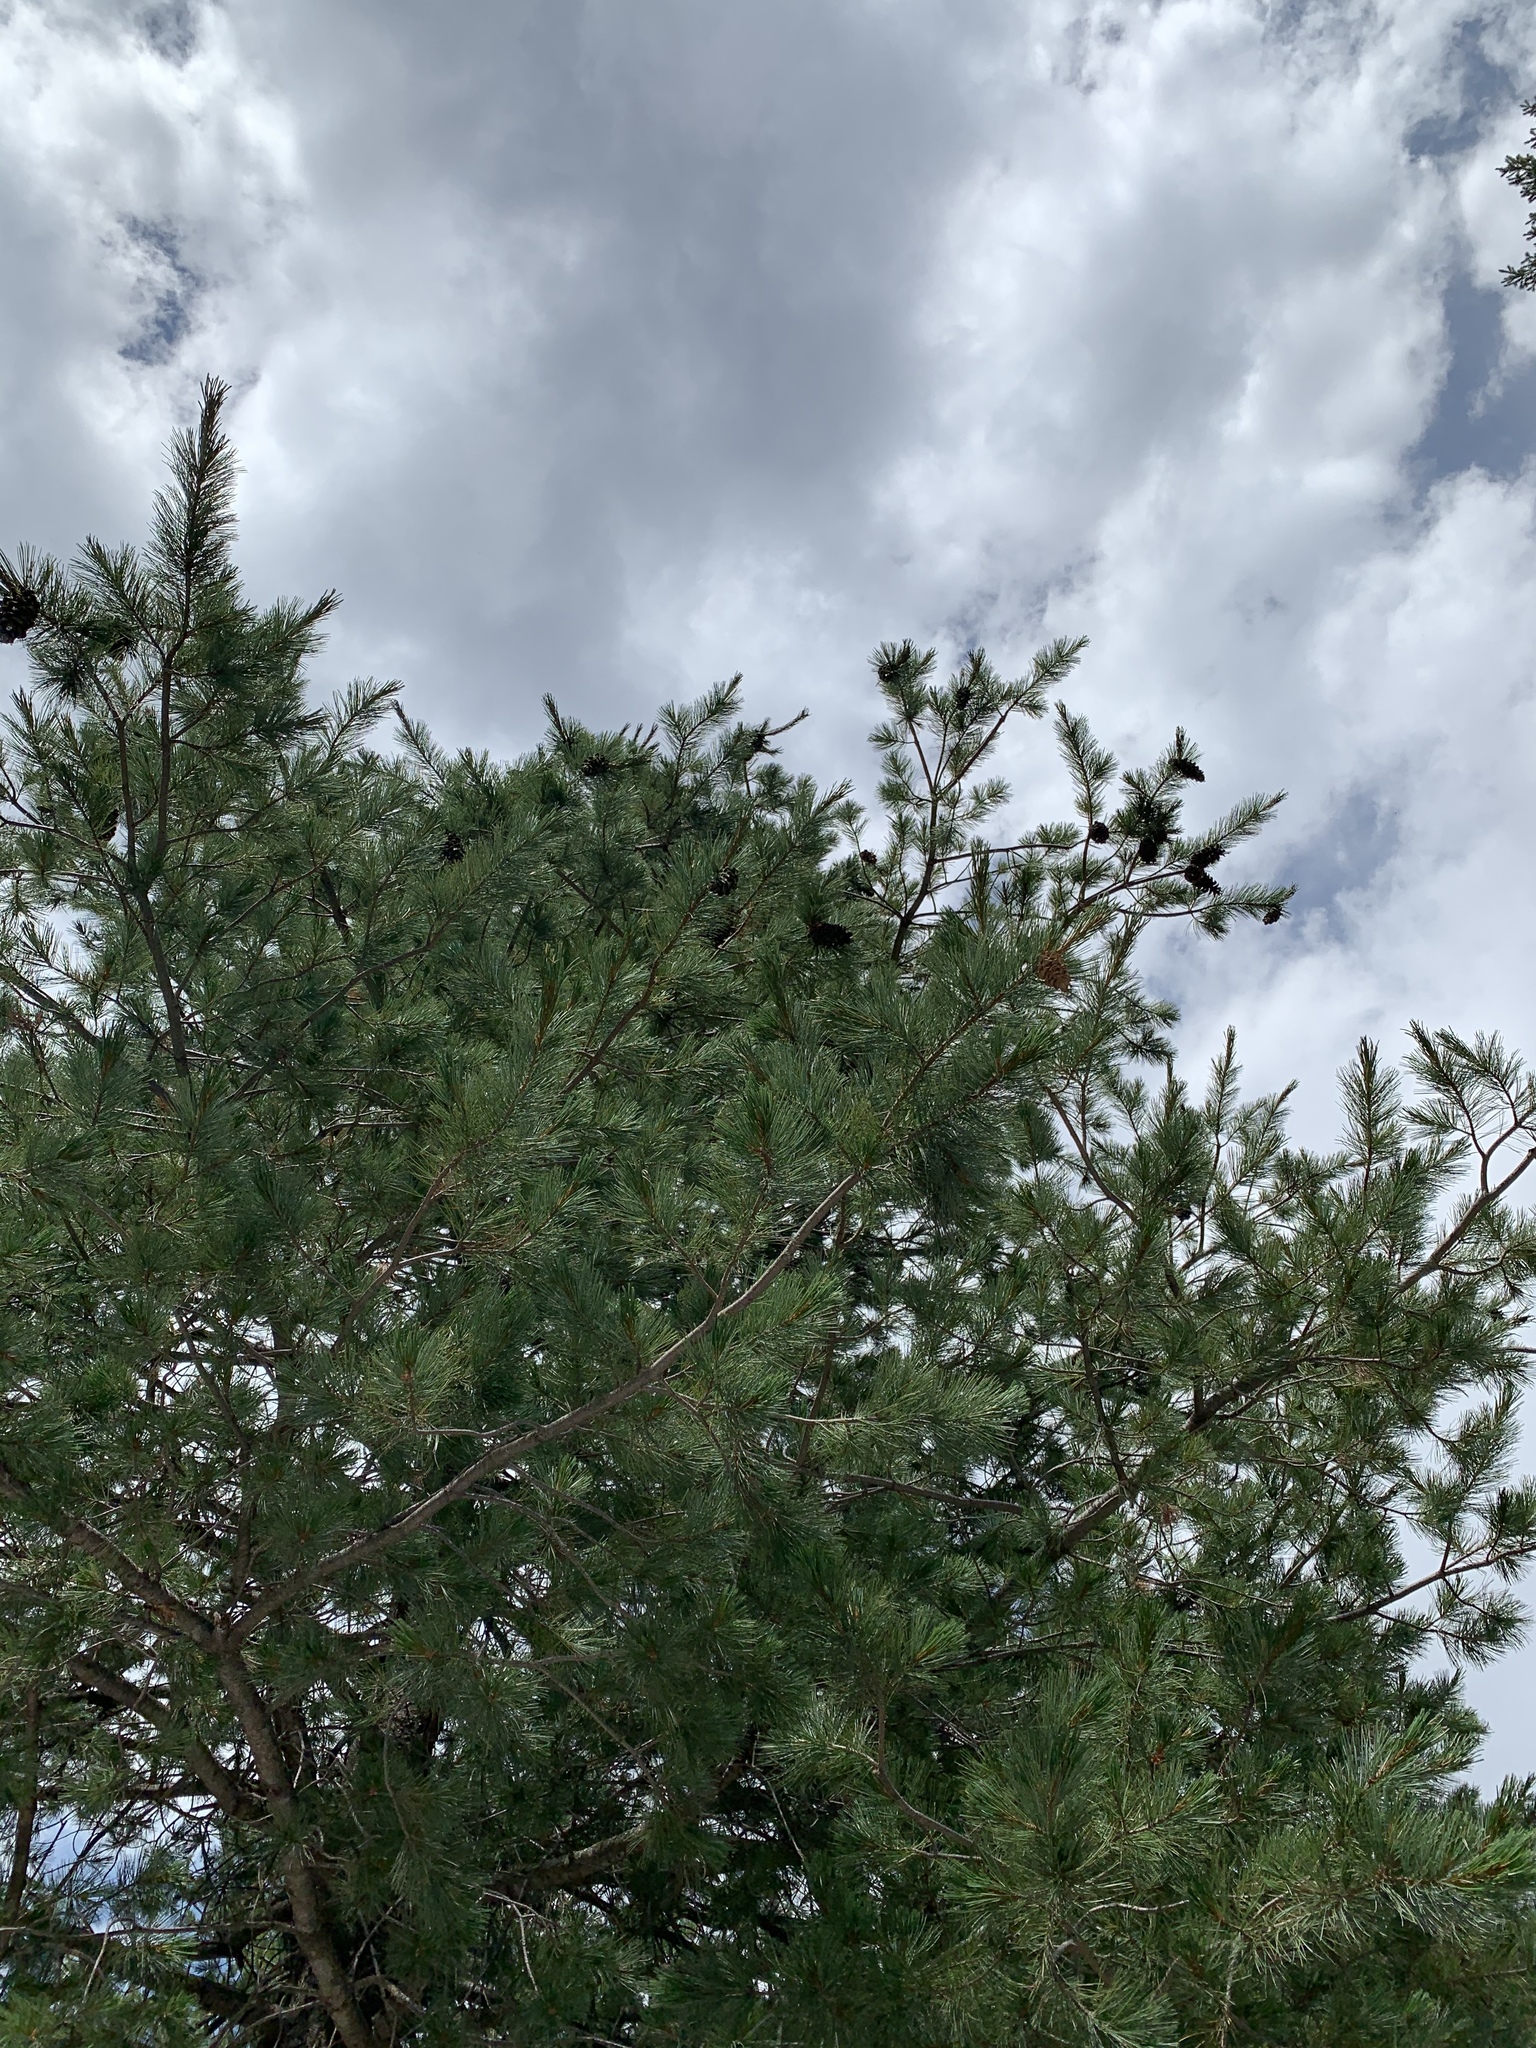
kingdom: Plantae
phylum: Tracheophyta
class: Pinopsida
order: Pinales
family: Pinaceae
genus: Pinus
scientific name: Pinus strobiformis
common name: Southwestern white pine
